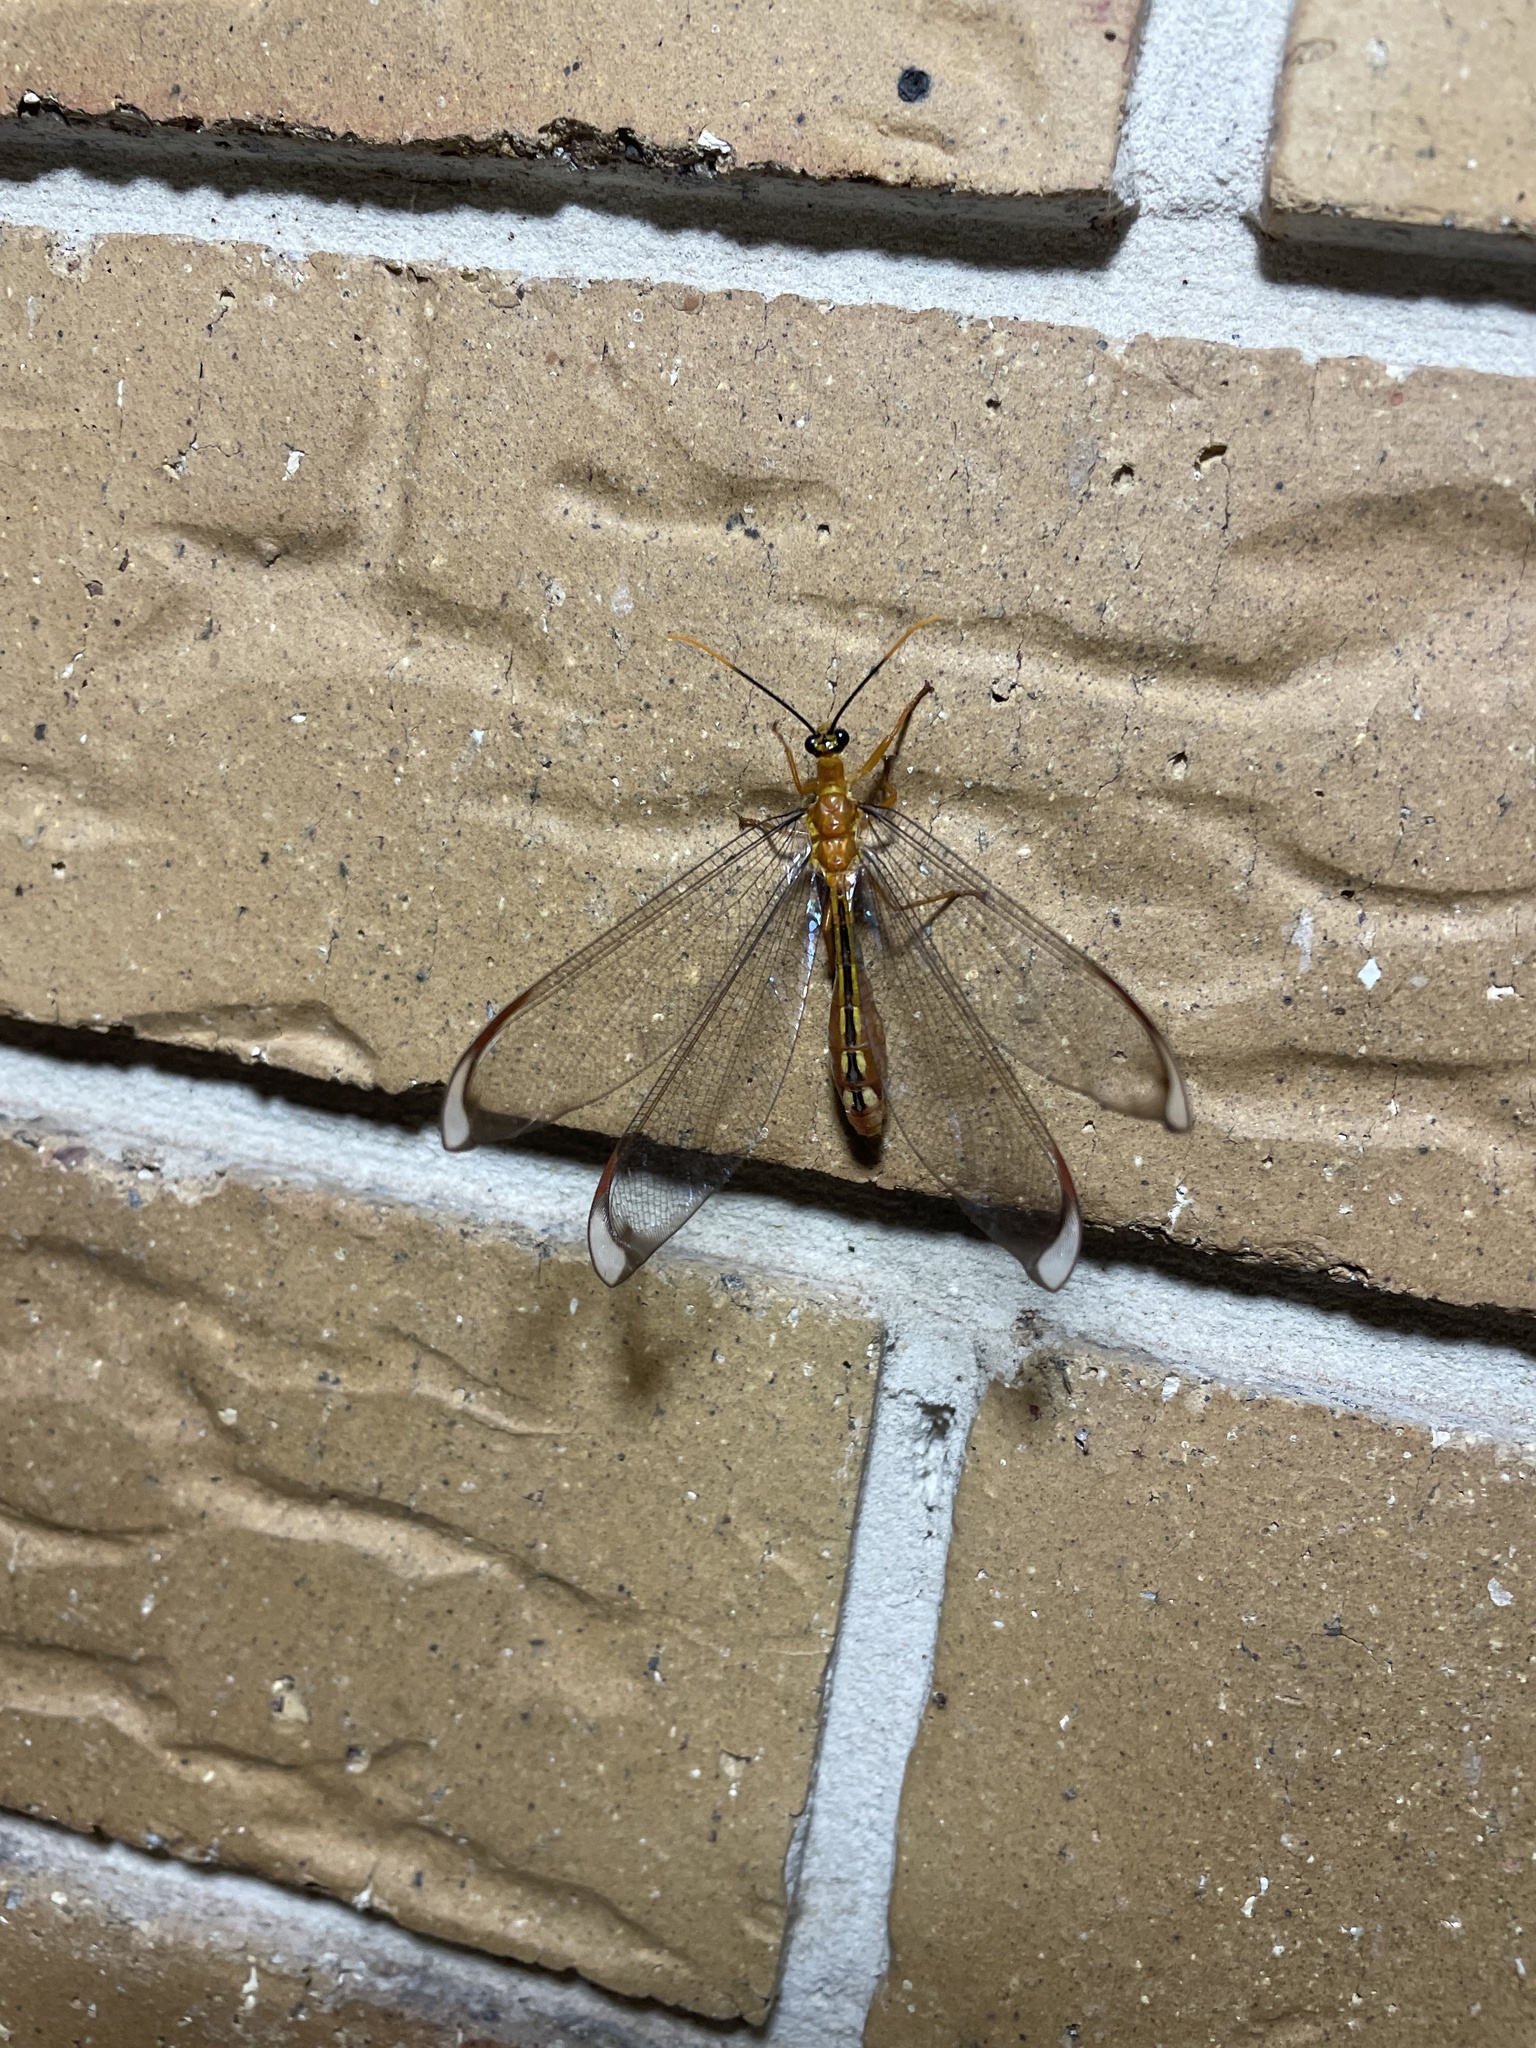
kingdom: Animalia
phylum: Arthropoda
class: Insecta
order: Neuroptera
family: Nymphidae
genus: Nymphes
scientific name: Nymphes myrmeleonoides
